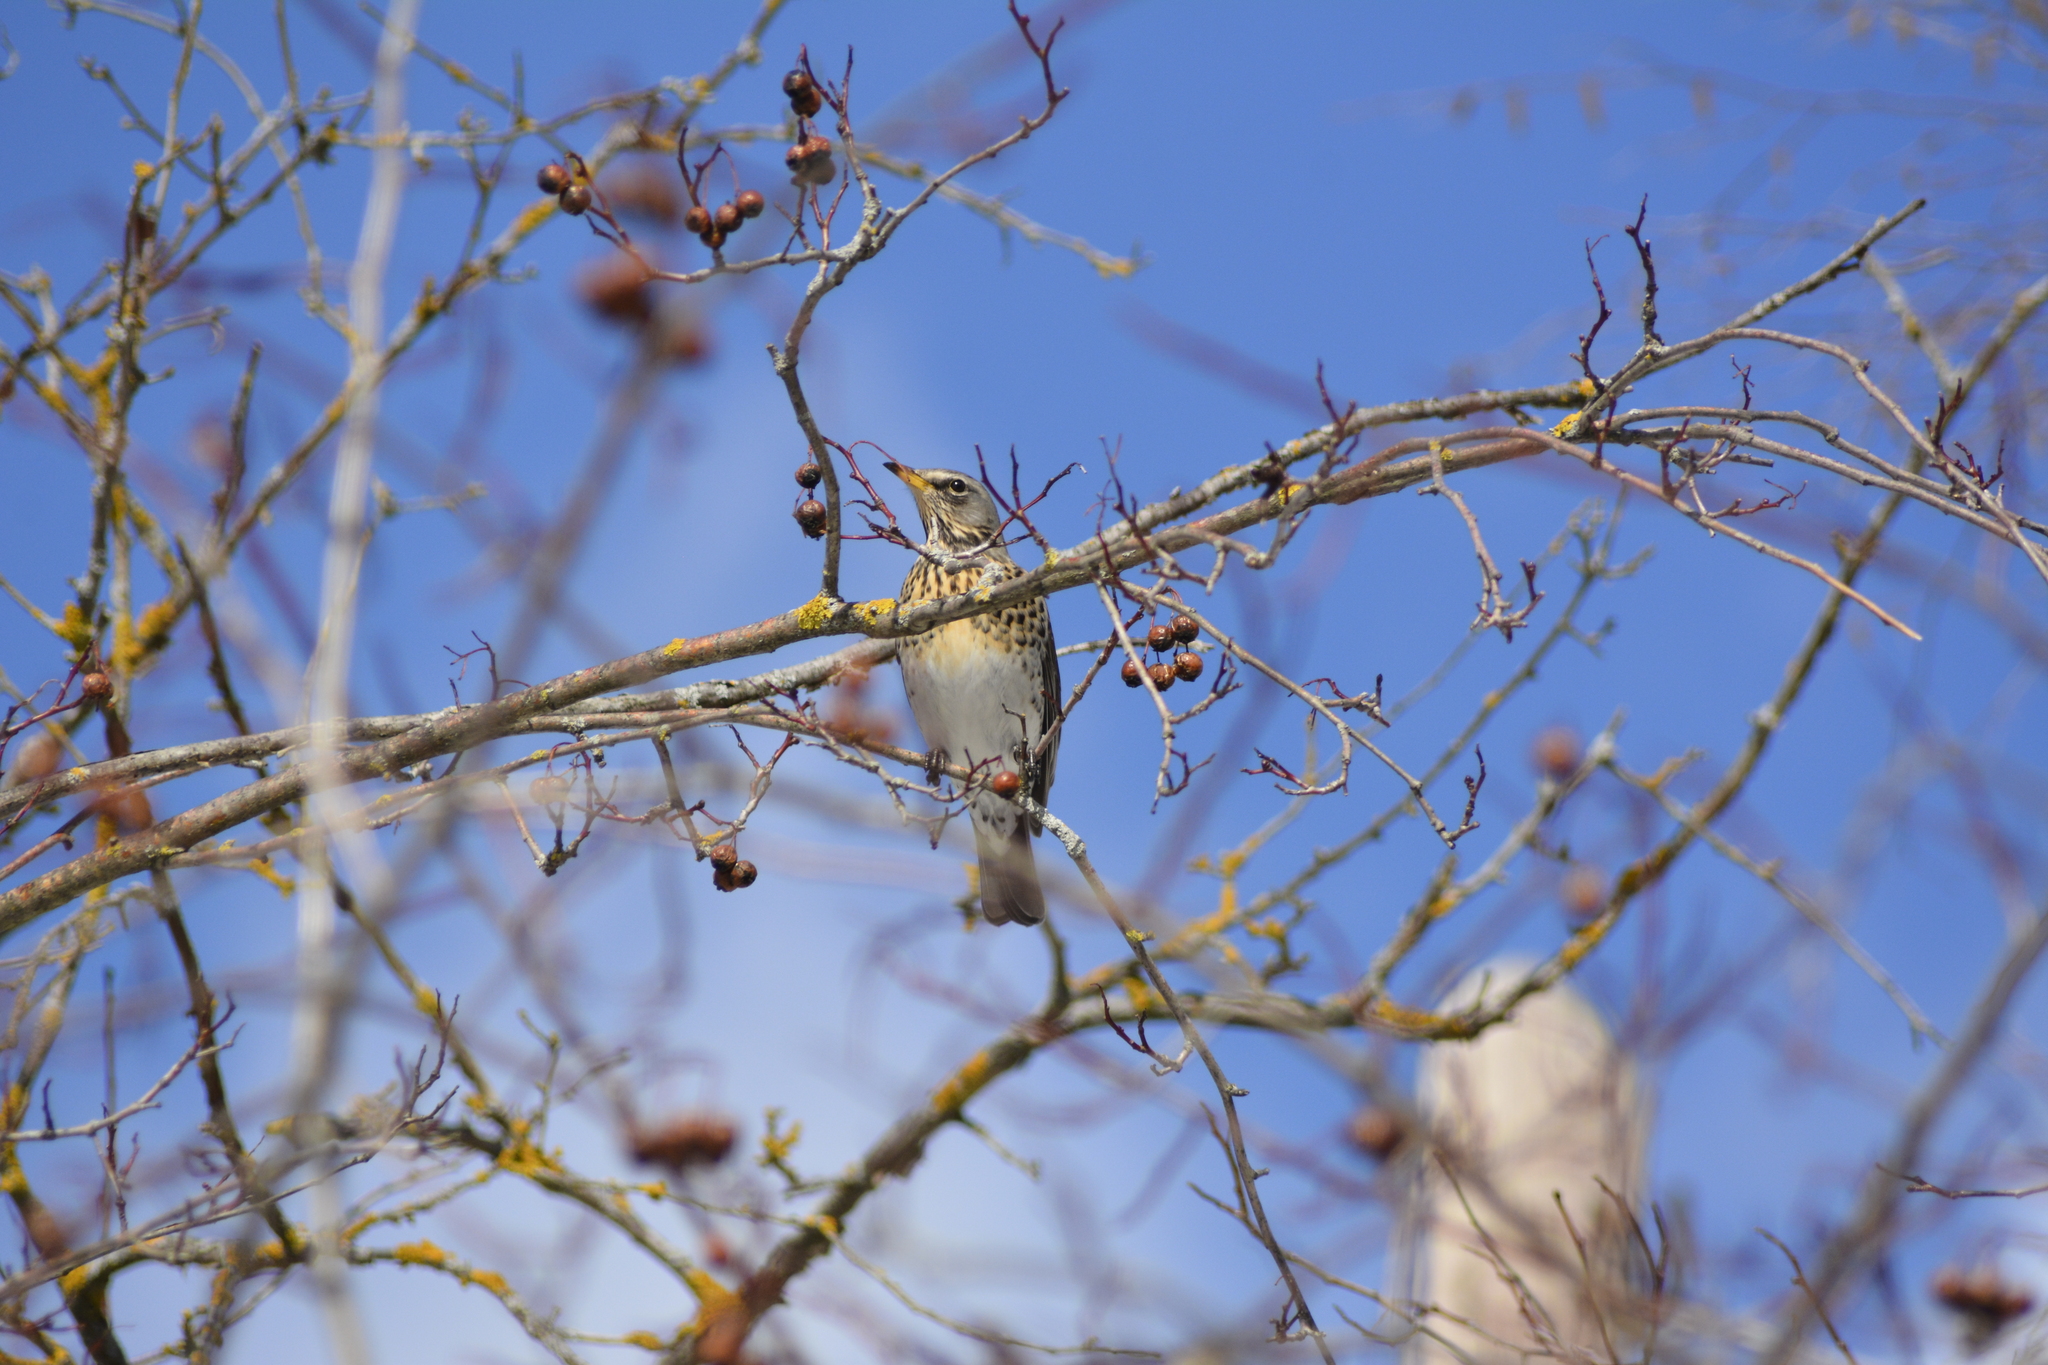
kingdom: Animalia
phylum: Chordata
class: Aves
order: Passeriformes
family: Turdidae
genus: Turdus
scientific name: Turdus pilaris
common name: Fieldfare
